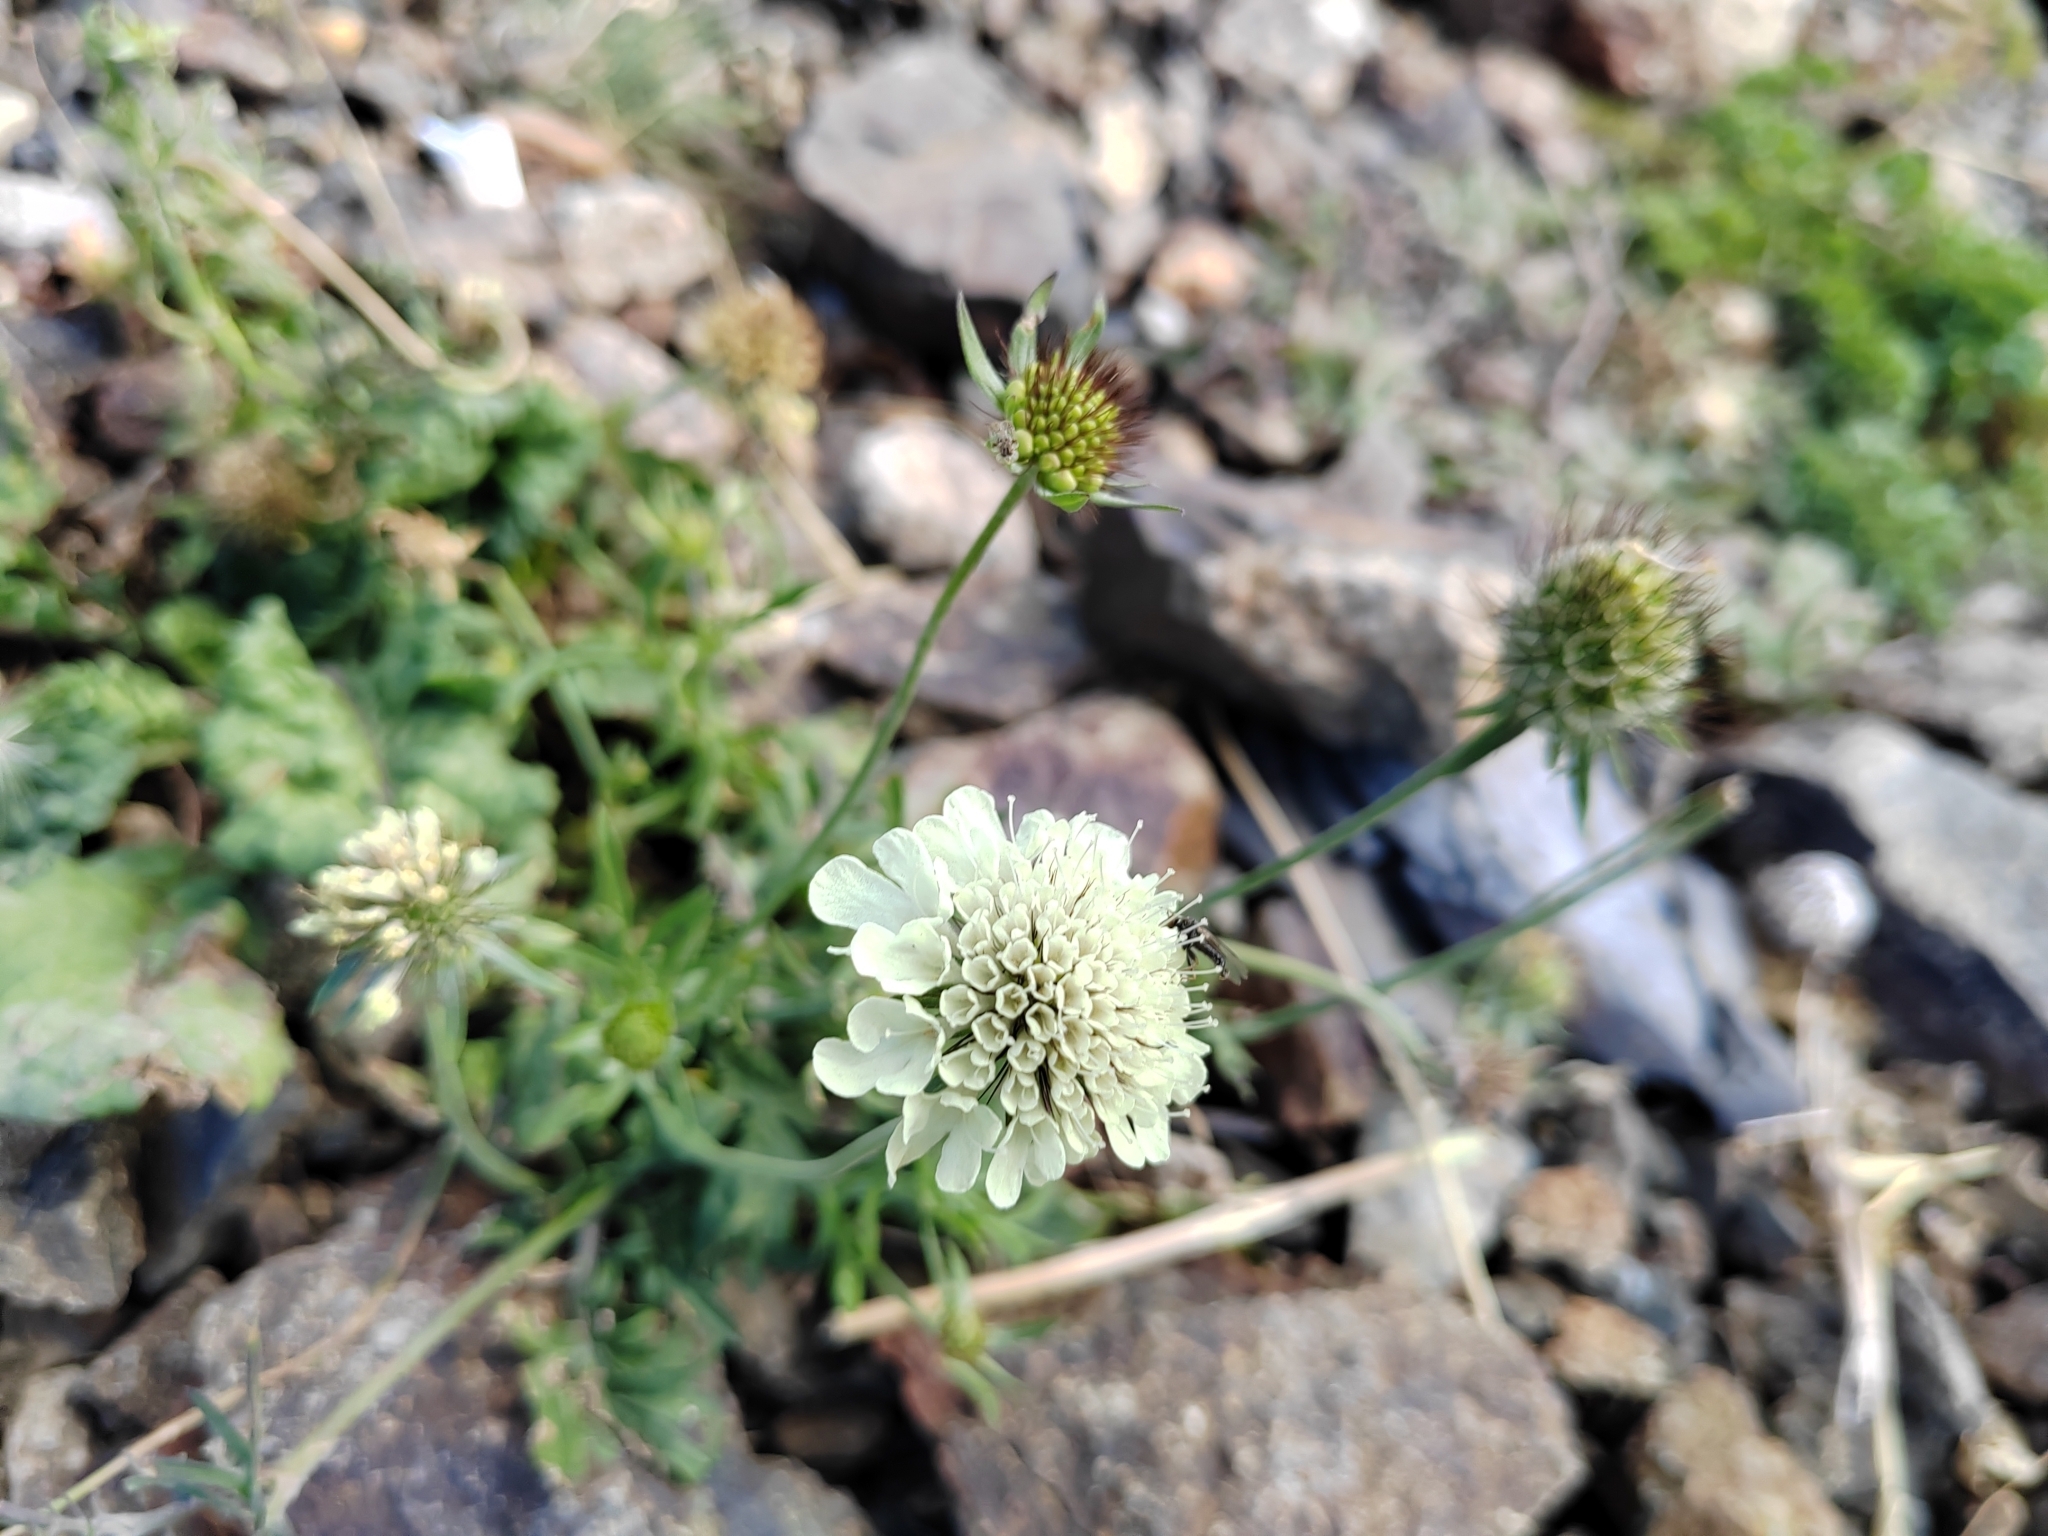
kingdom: Plantae
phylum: Tracheophyta
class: Magnoliopsida
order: Dipsacales
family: Caprifoliaceae
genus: Cephalaria
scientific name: Cephalaria gigantea
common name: Tatarian cephalaria
